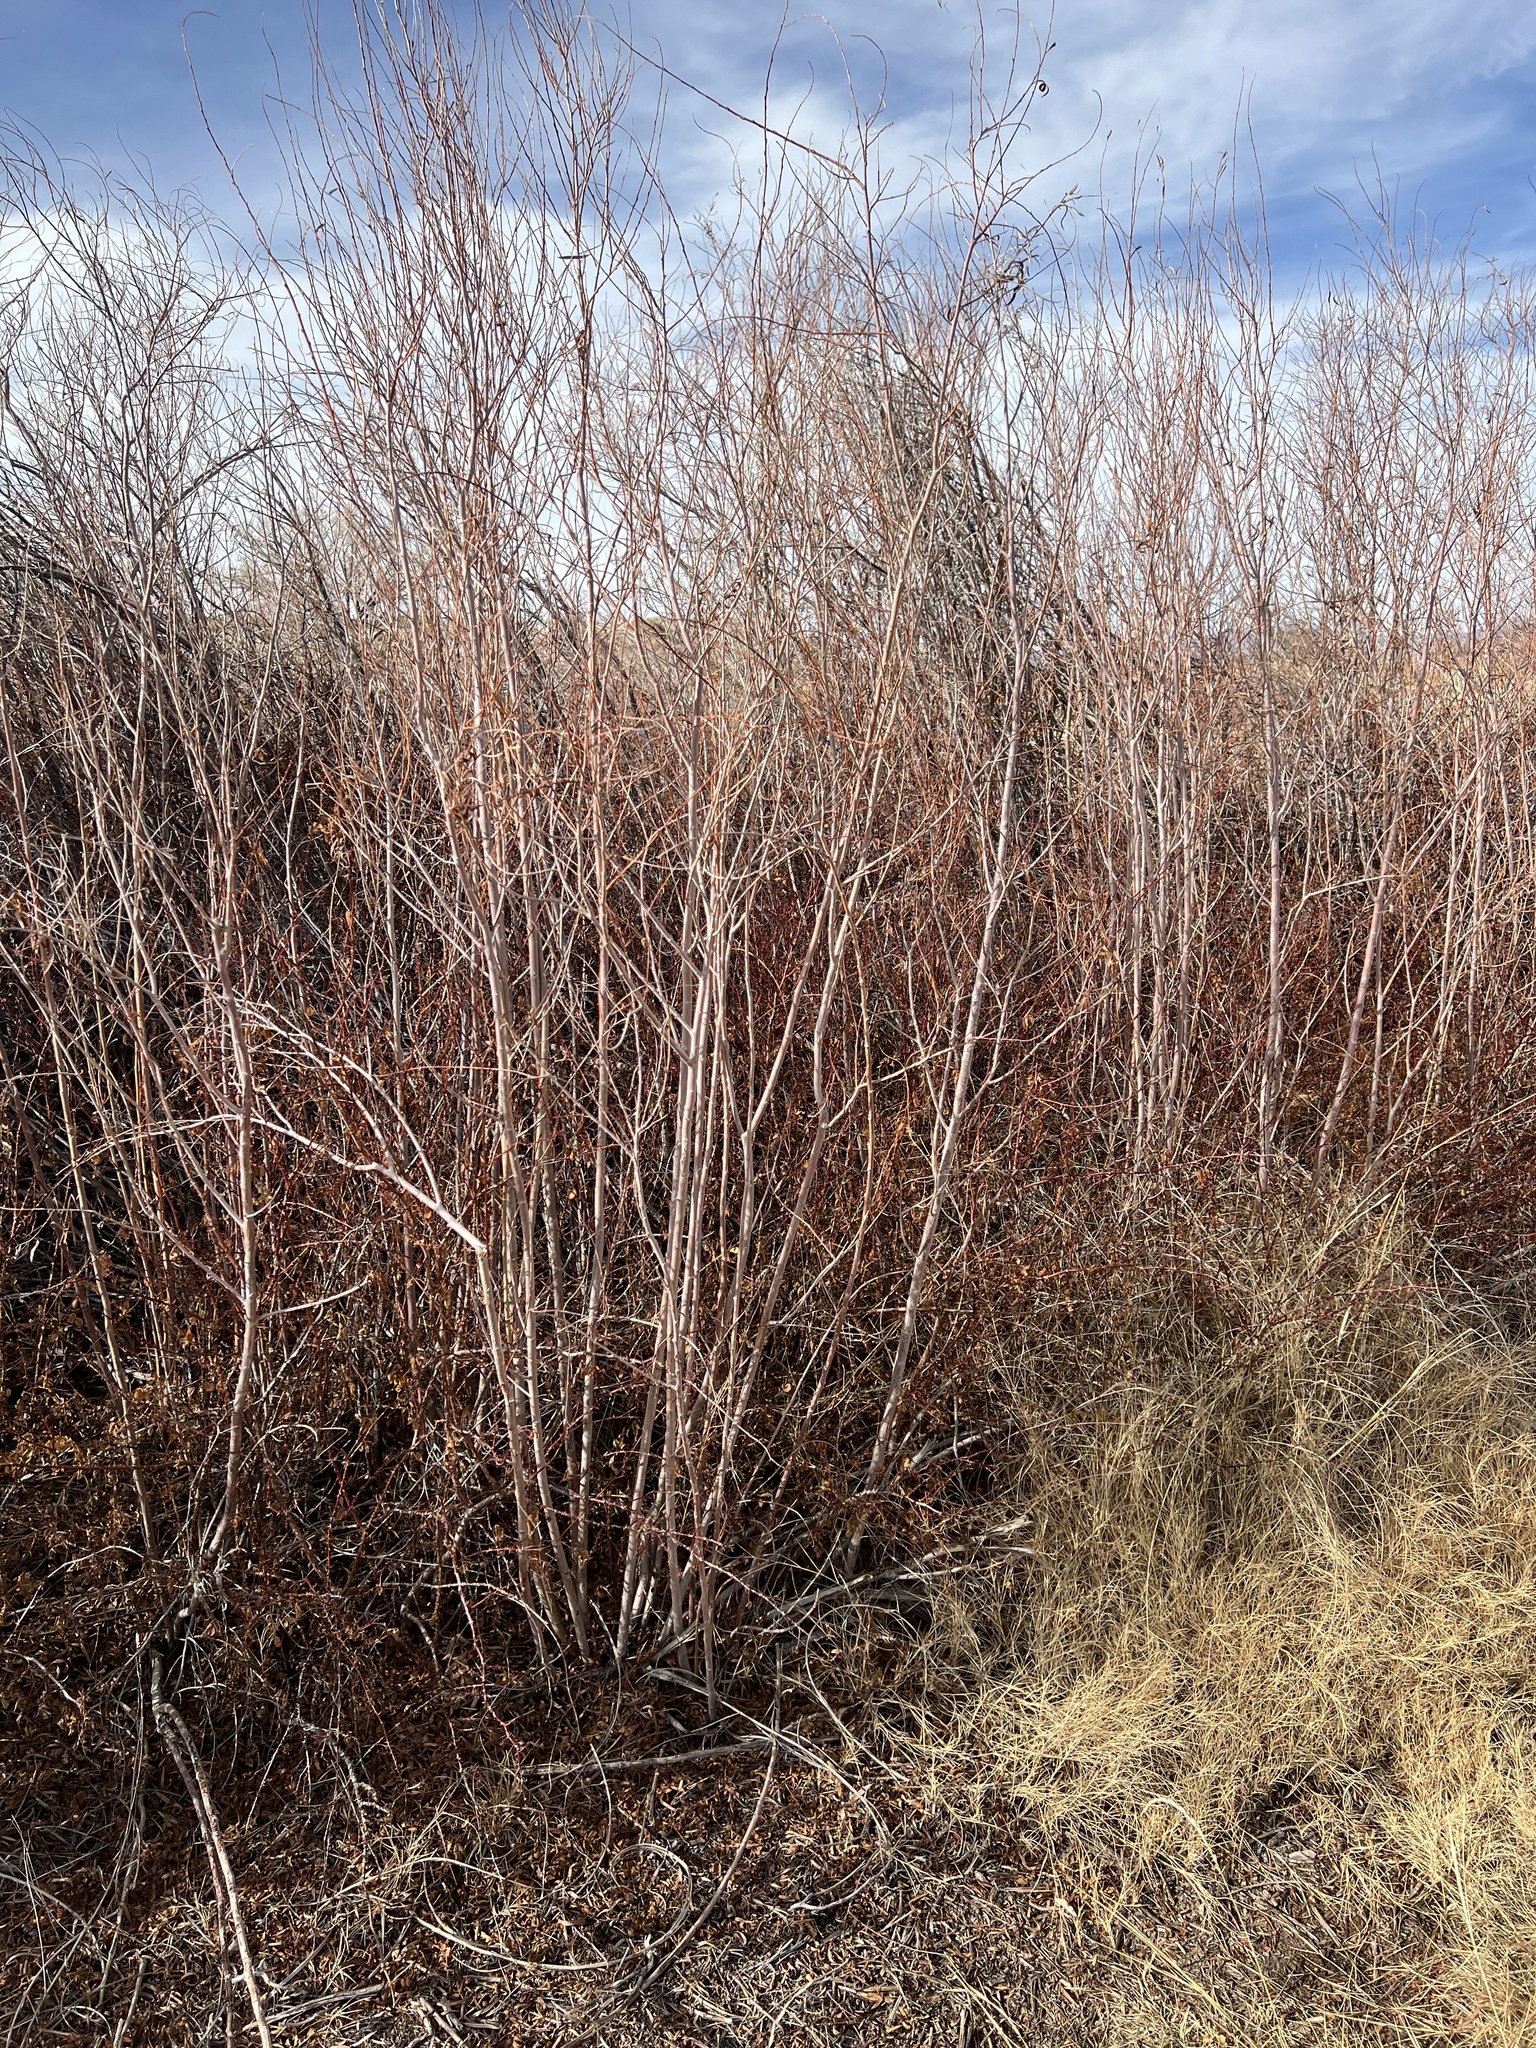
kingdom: Plantae
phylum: Tracheophyta
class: Magnoliopsida
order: Malpighiales
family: Salicaceae
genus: Salix
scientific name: Salix exigua
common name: Coyote willow
